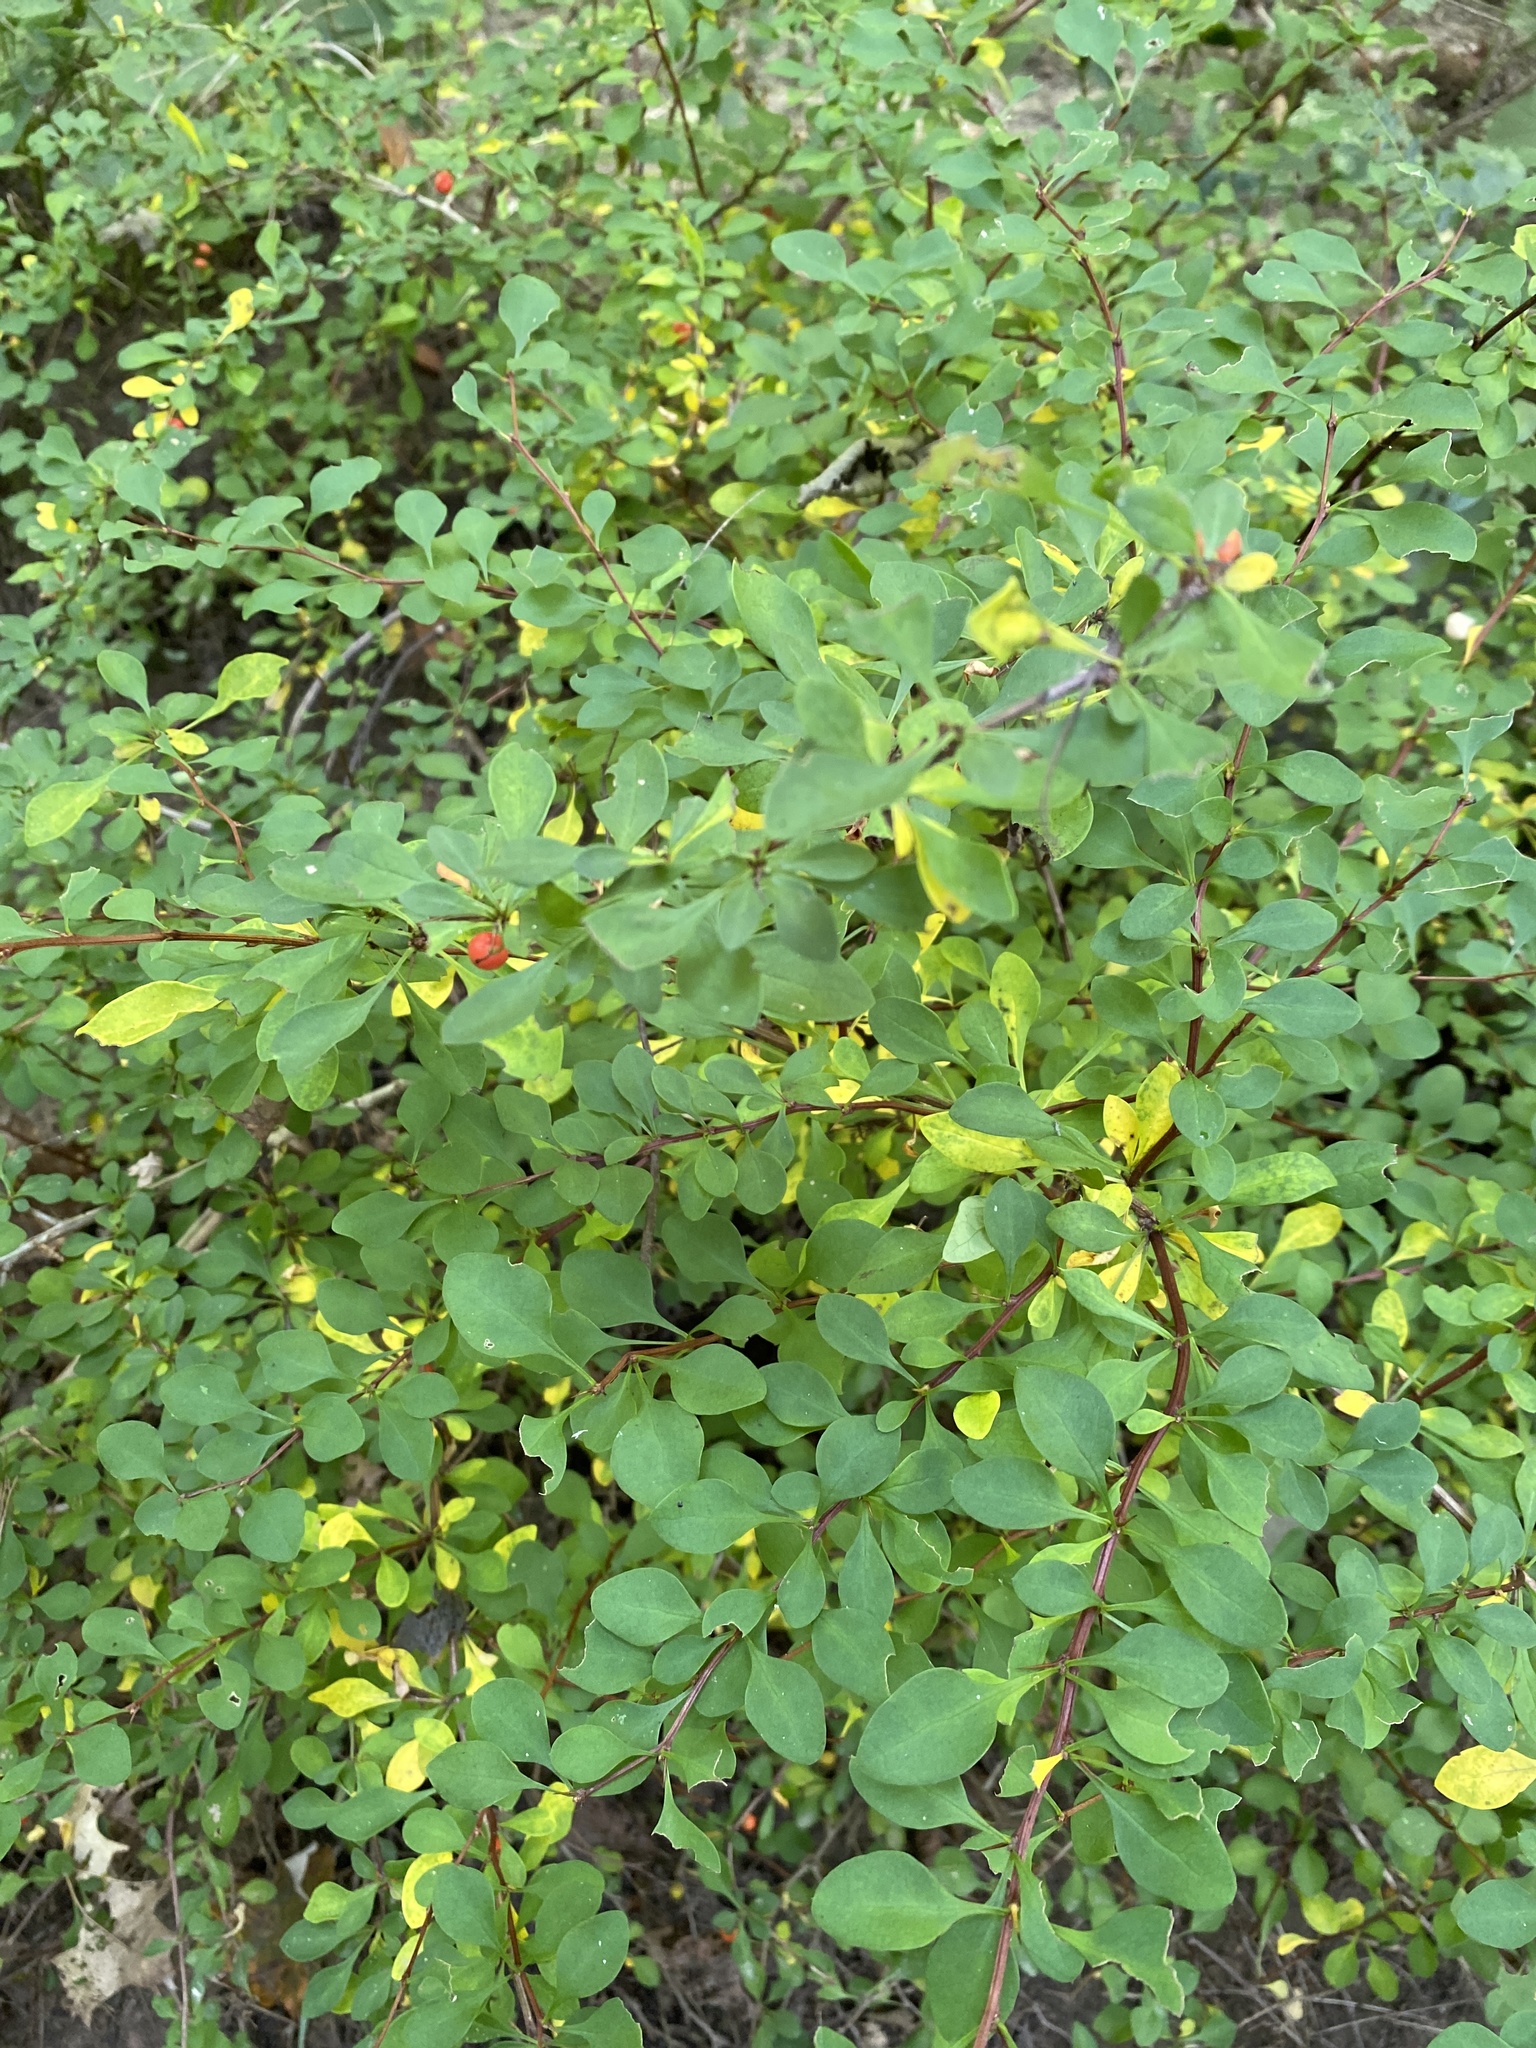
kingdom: Plantae
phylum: Tracheophyta
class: Magnoliopsida
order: Ranunculales
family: Berberidaceae
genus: Berberis
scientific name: Berberis thunbergii
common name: Japanese barberry
